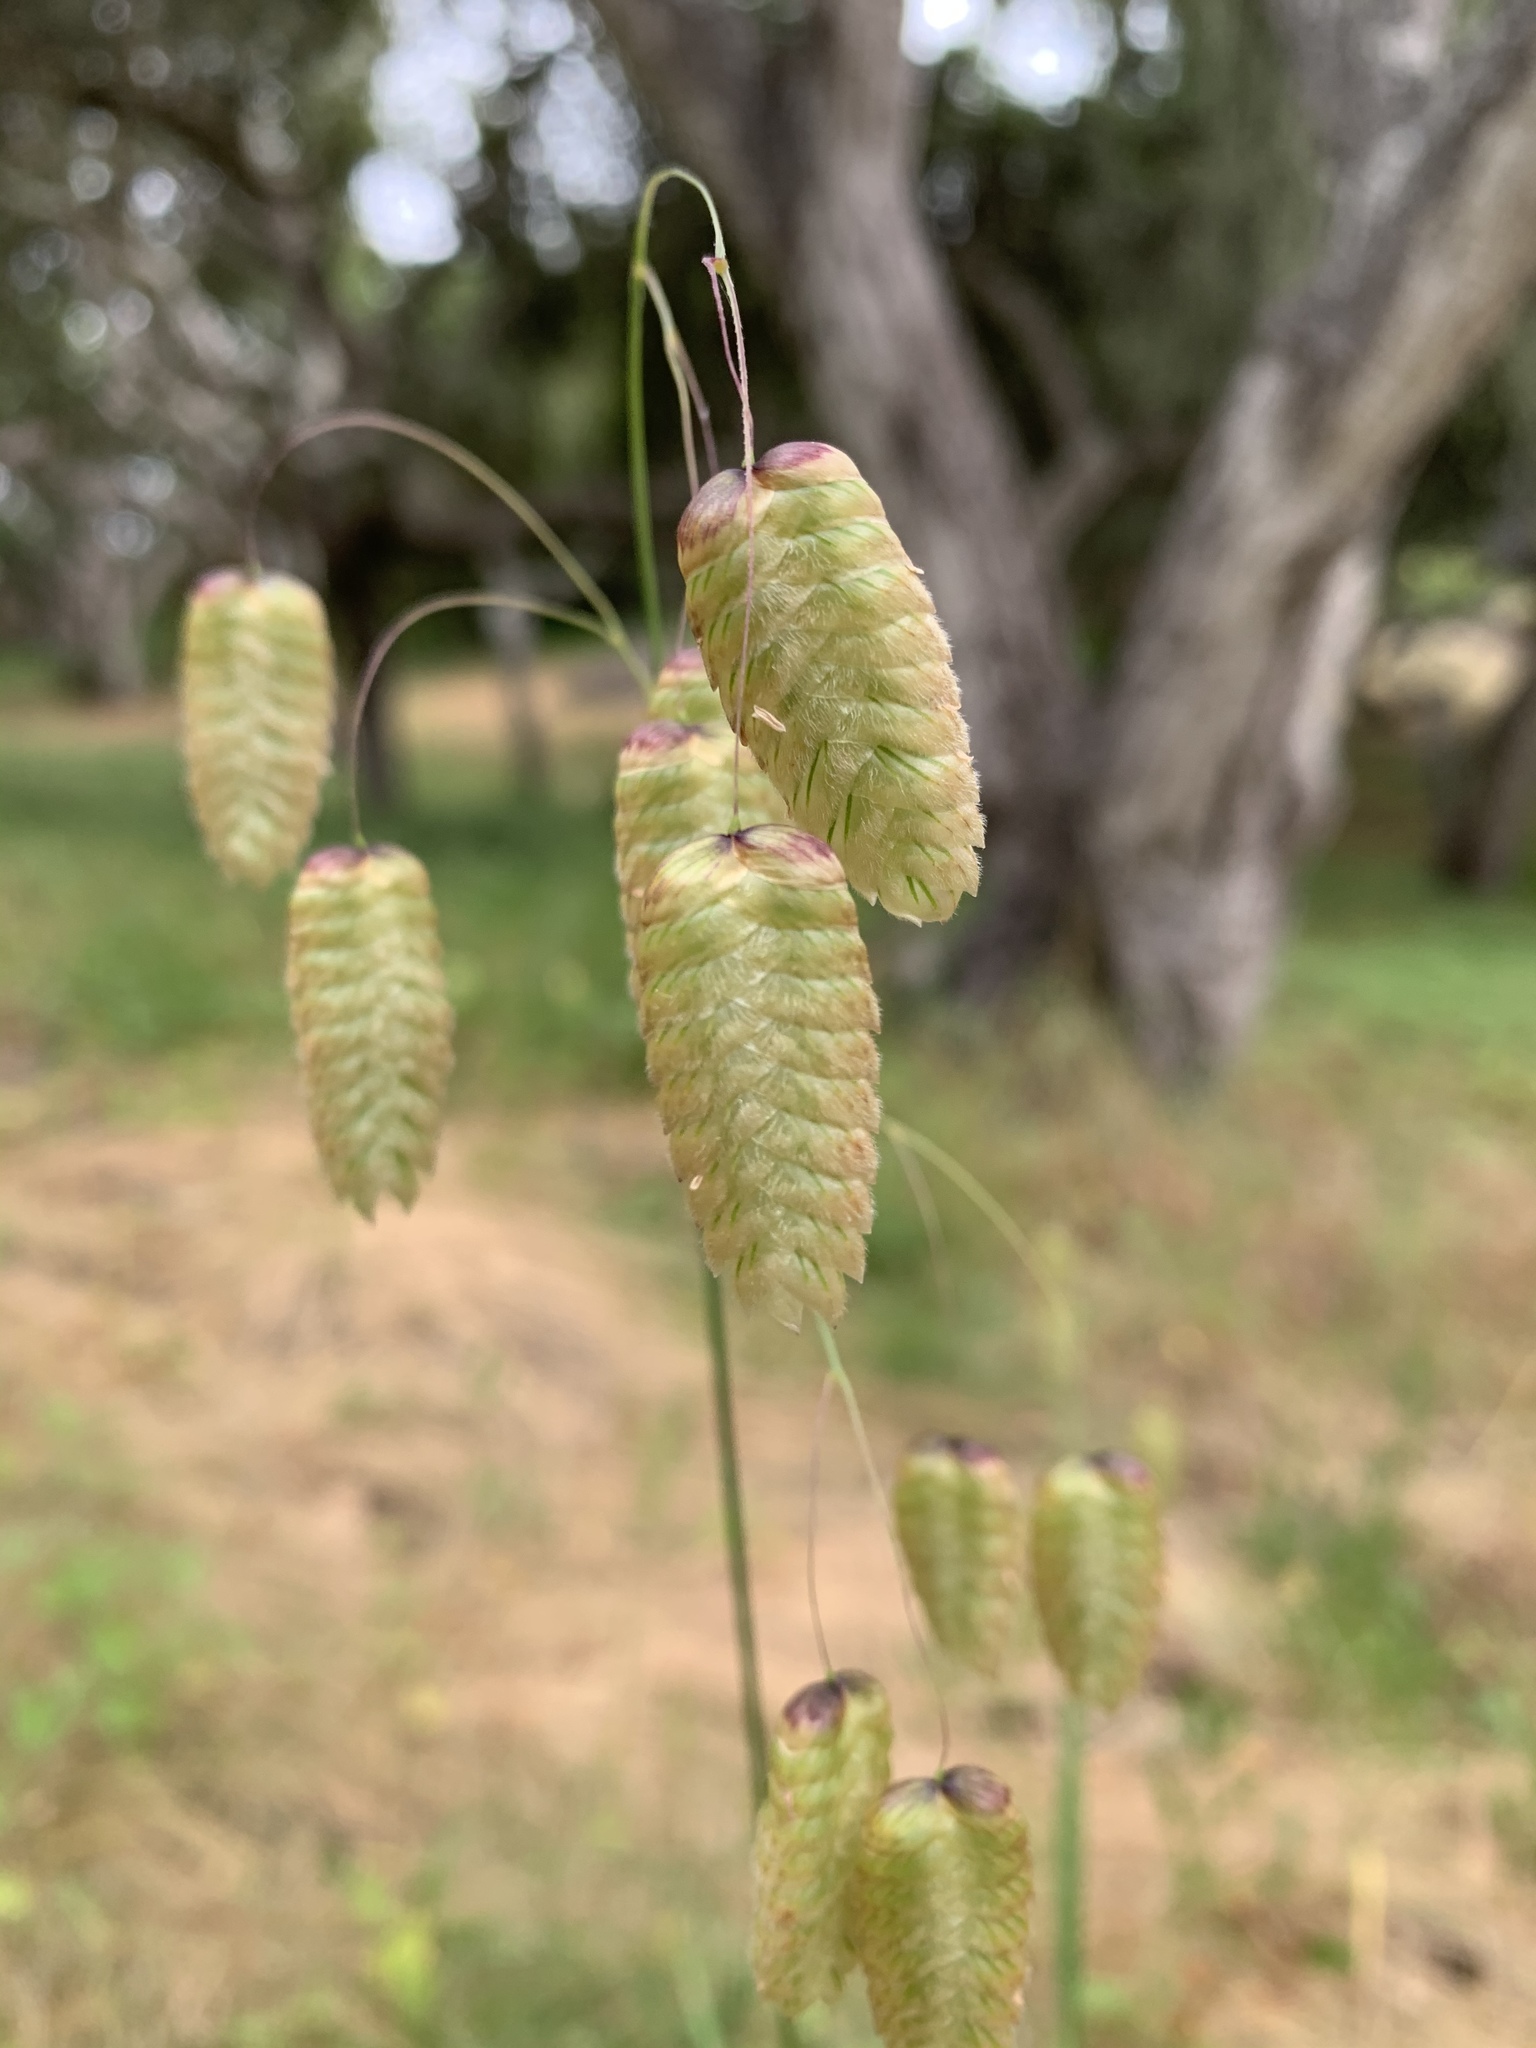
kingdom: Plantae
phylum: Tracheophyta
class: Liliopsida
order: Poales
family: Poaceae
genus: Briza
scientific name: Briza maxima
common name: Big quakinggrass
